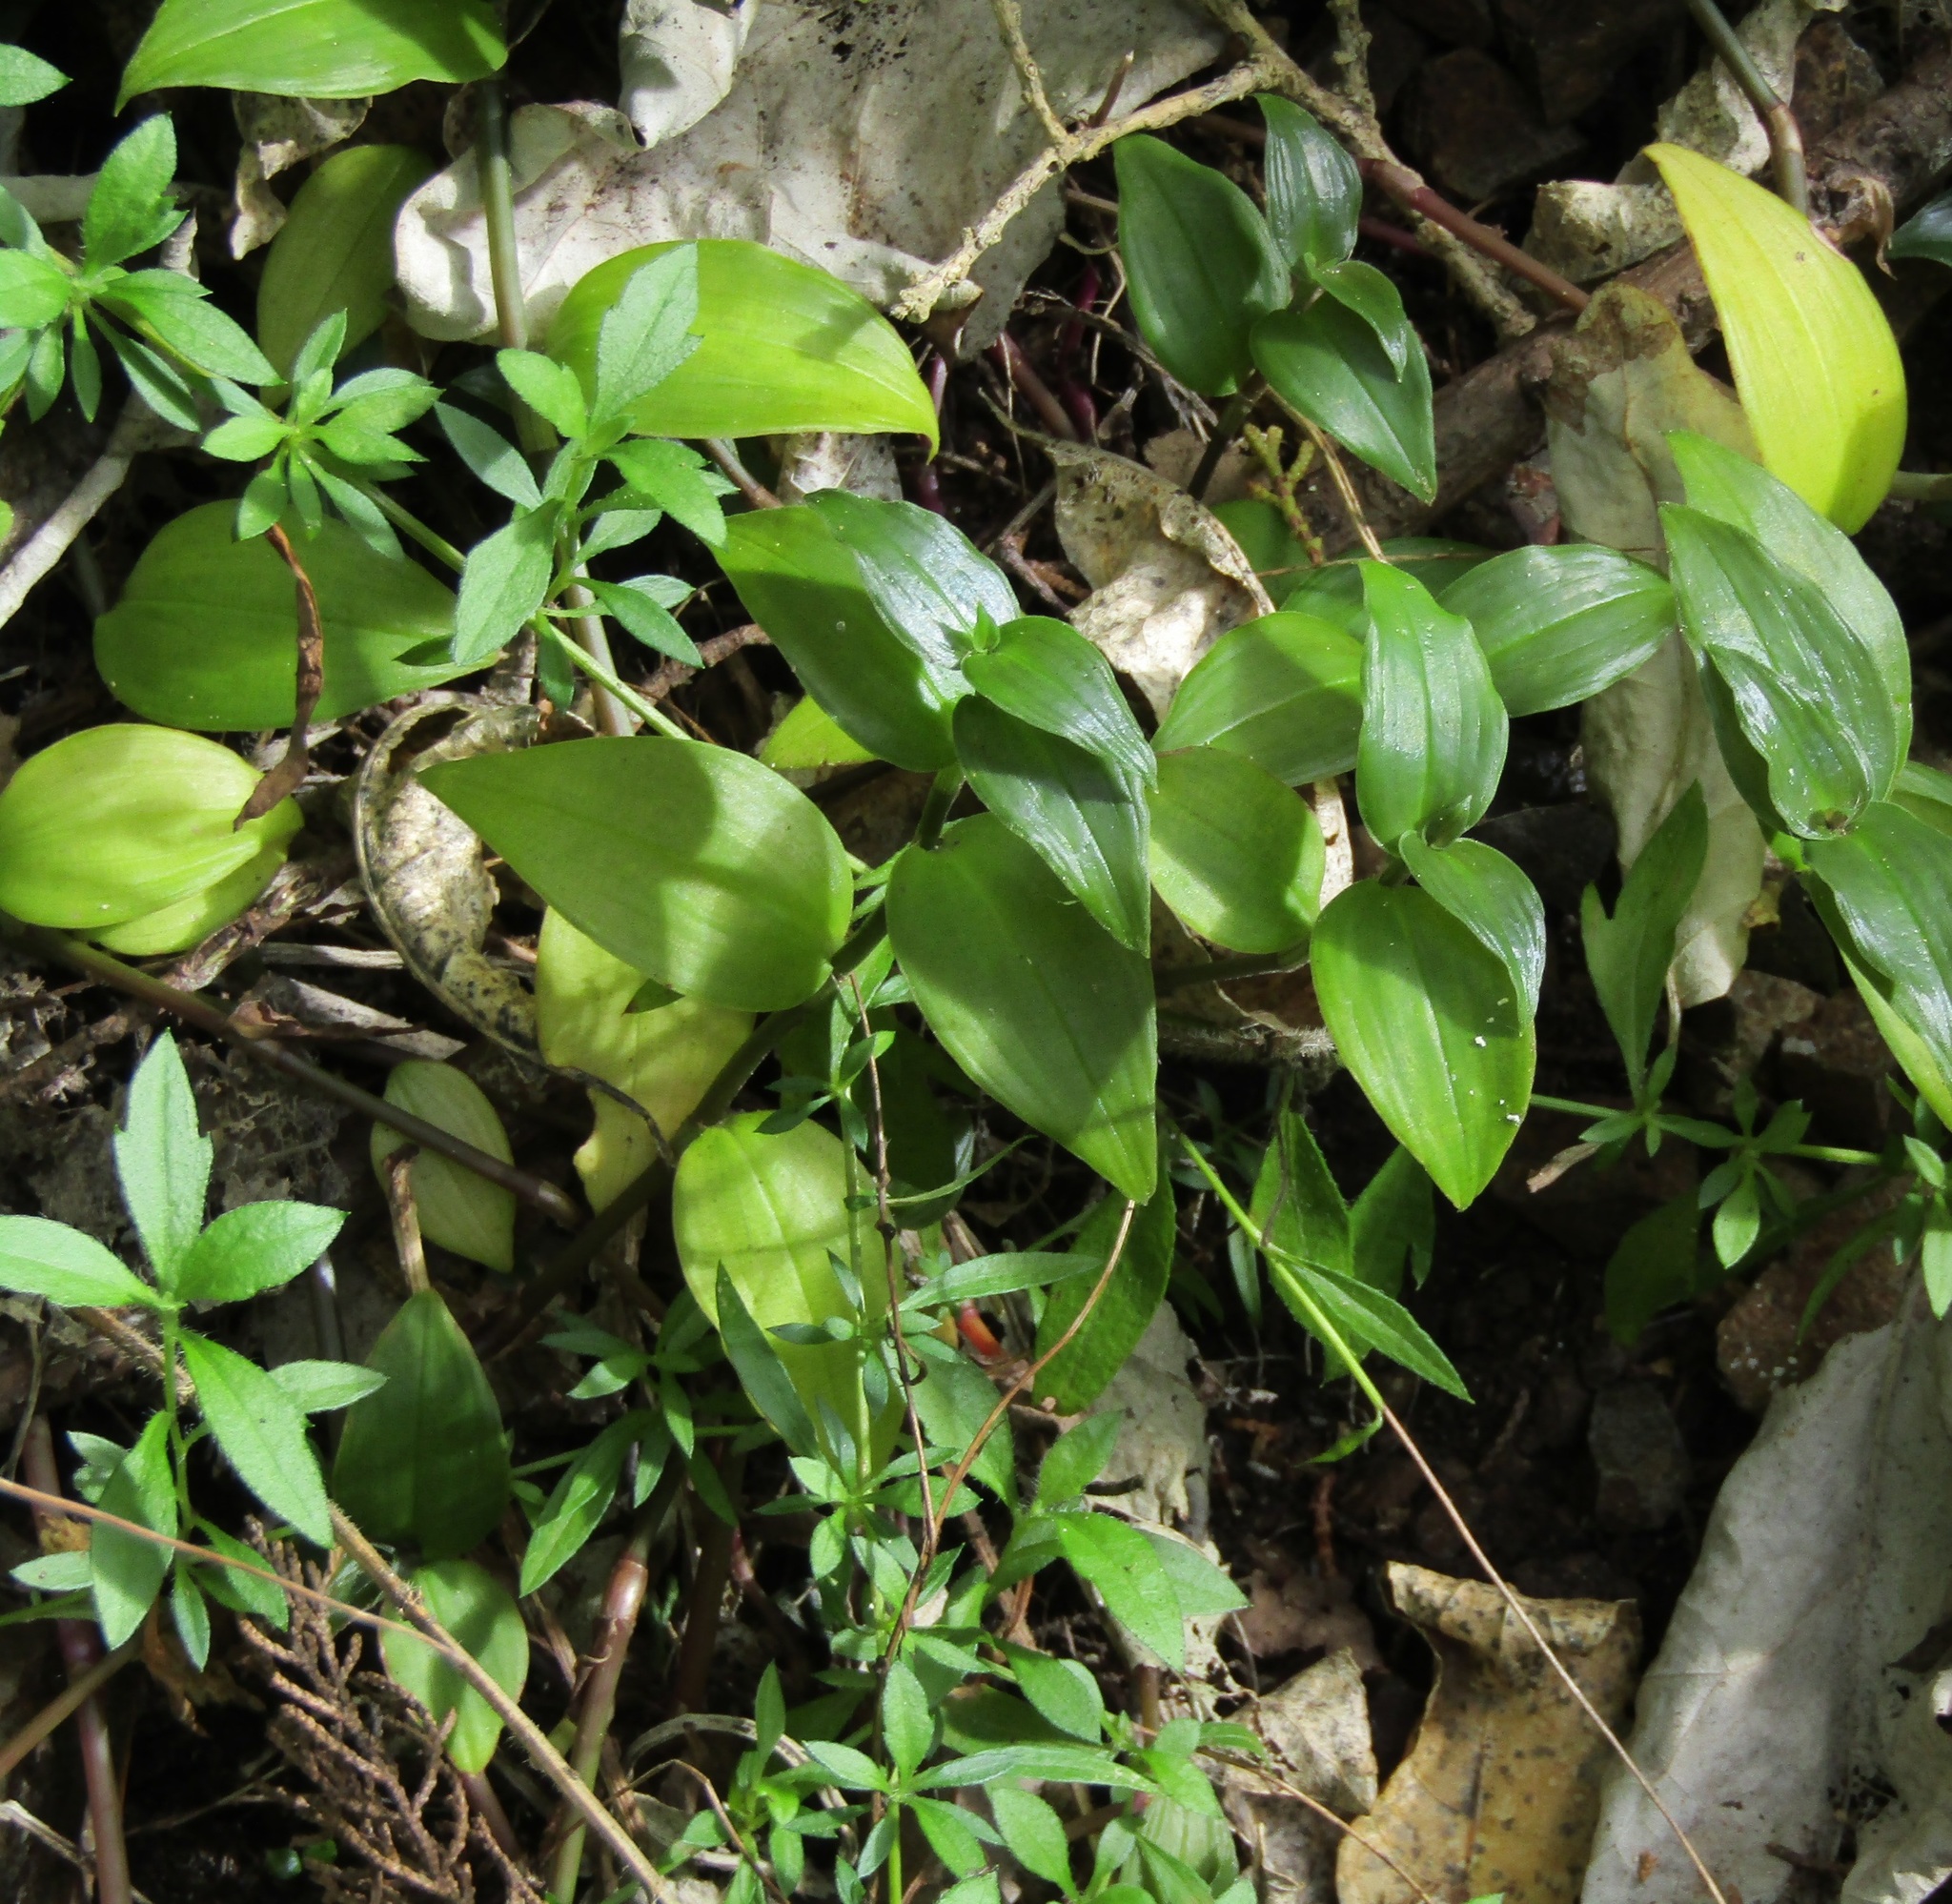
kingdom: Plantae
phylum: Tracheophyta
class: Liliopsida
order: Commelinales
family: Commelinaceae
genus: Tradescantia
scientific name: Tradescantia fluminensis
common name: Wandering-jew
